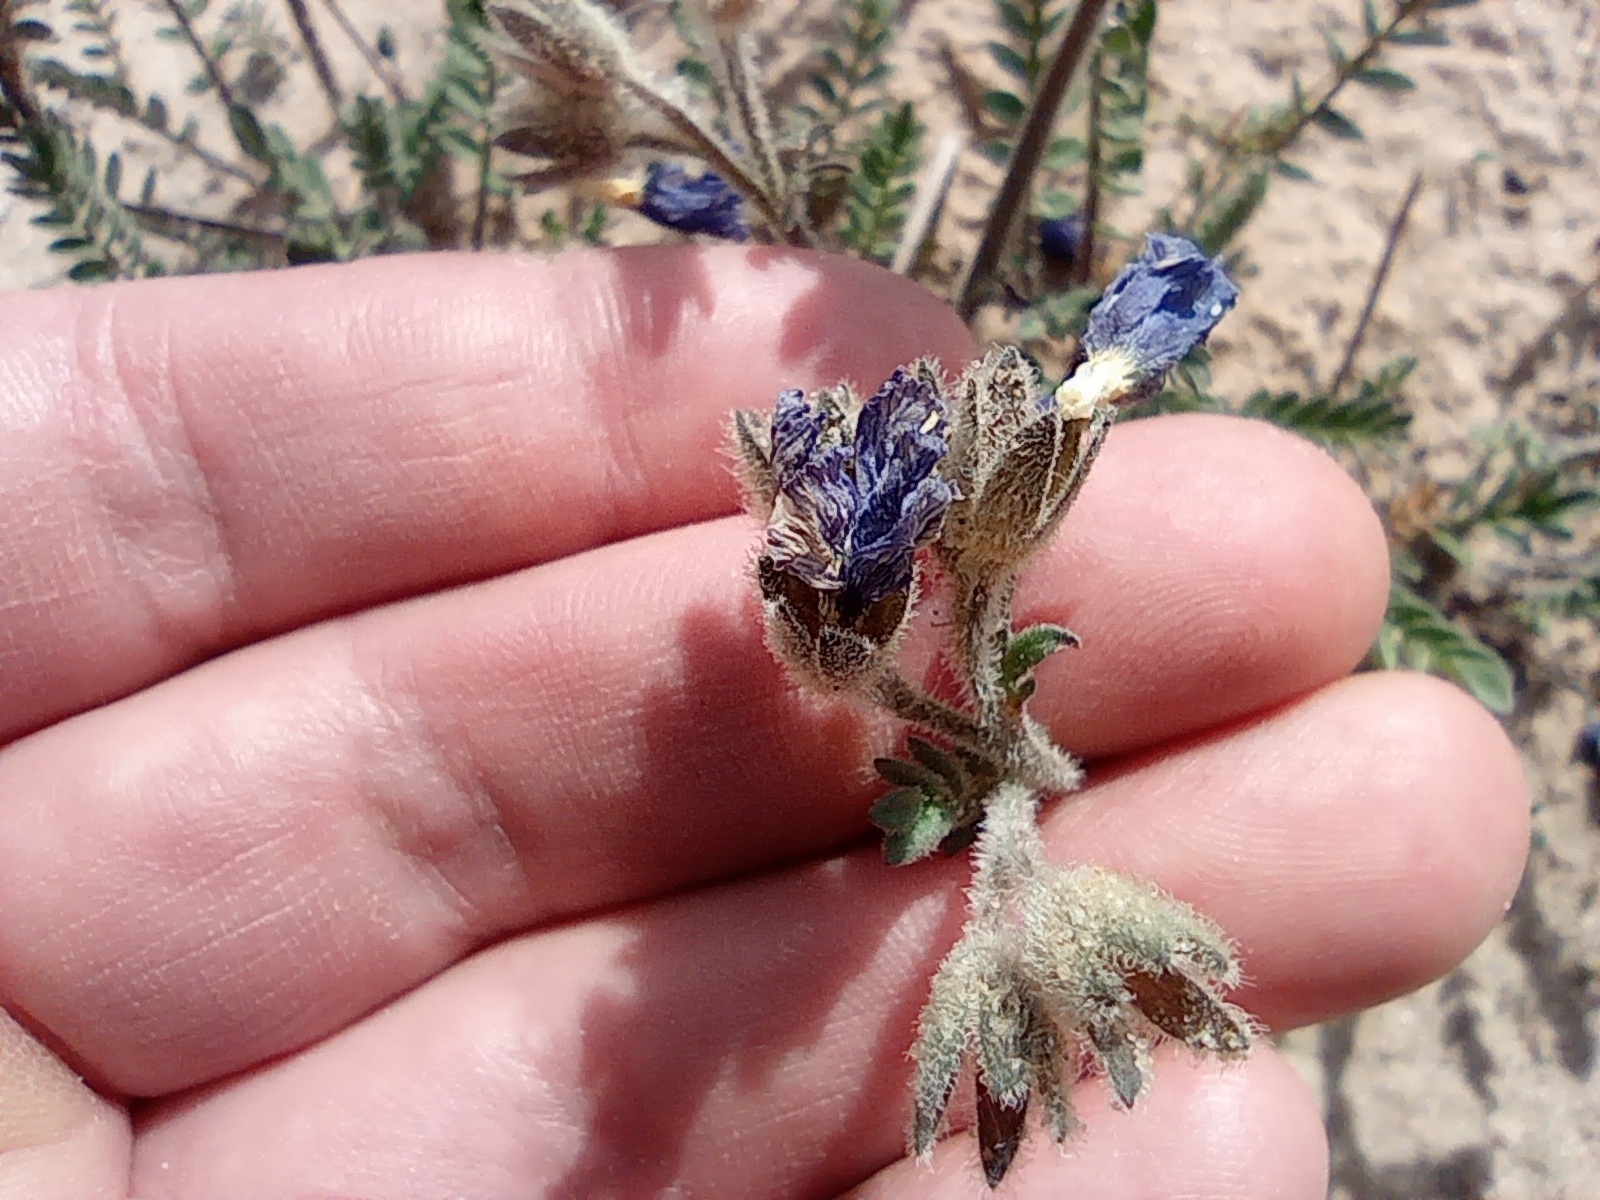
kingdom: Plantae
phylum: Tracheophyta
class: Magnoliopsida
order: Ericales
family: Polemoniaceae
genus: Polemonium
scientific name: Polemonium boreale
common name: Boreal jacob's-ladder
